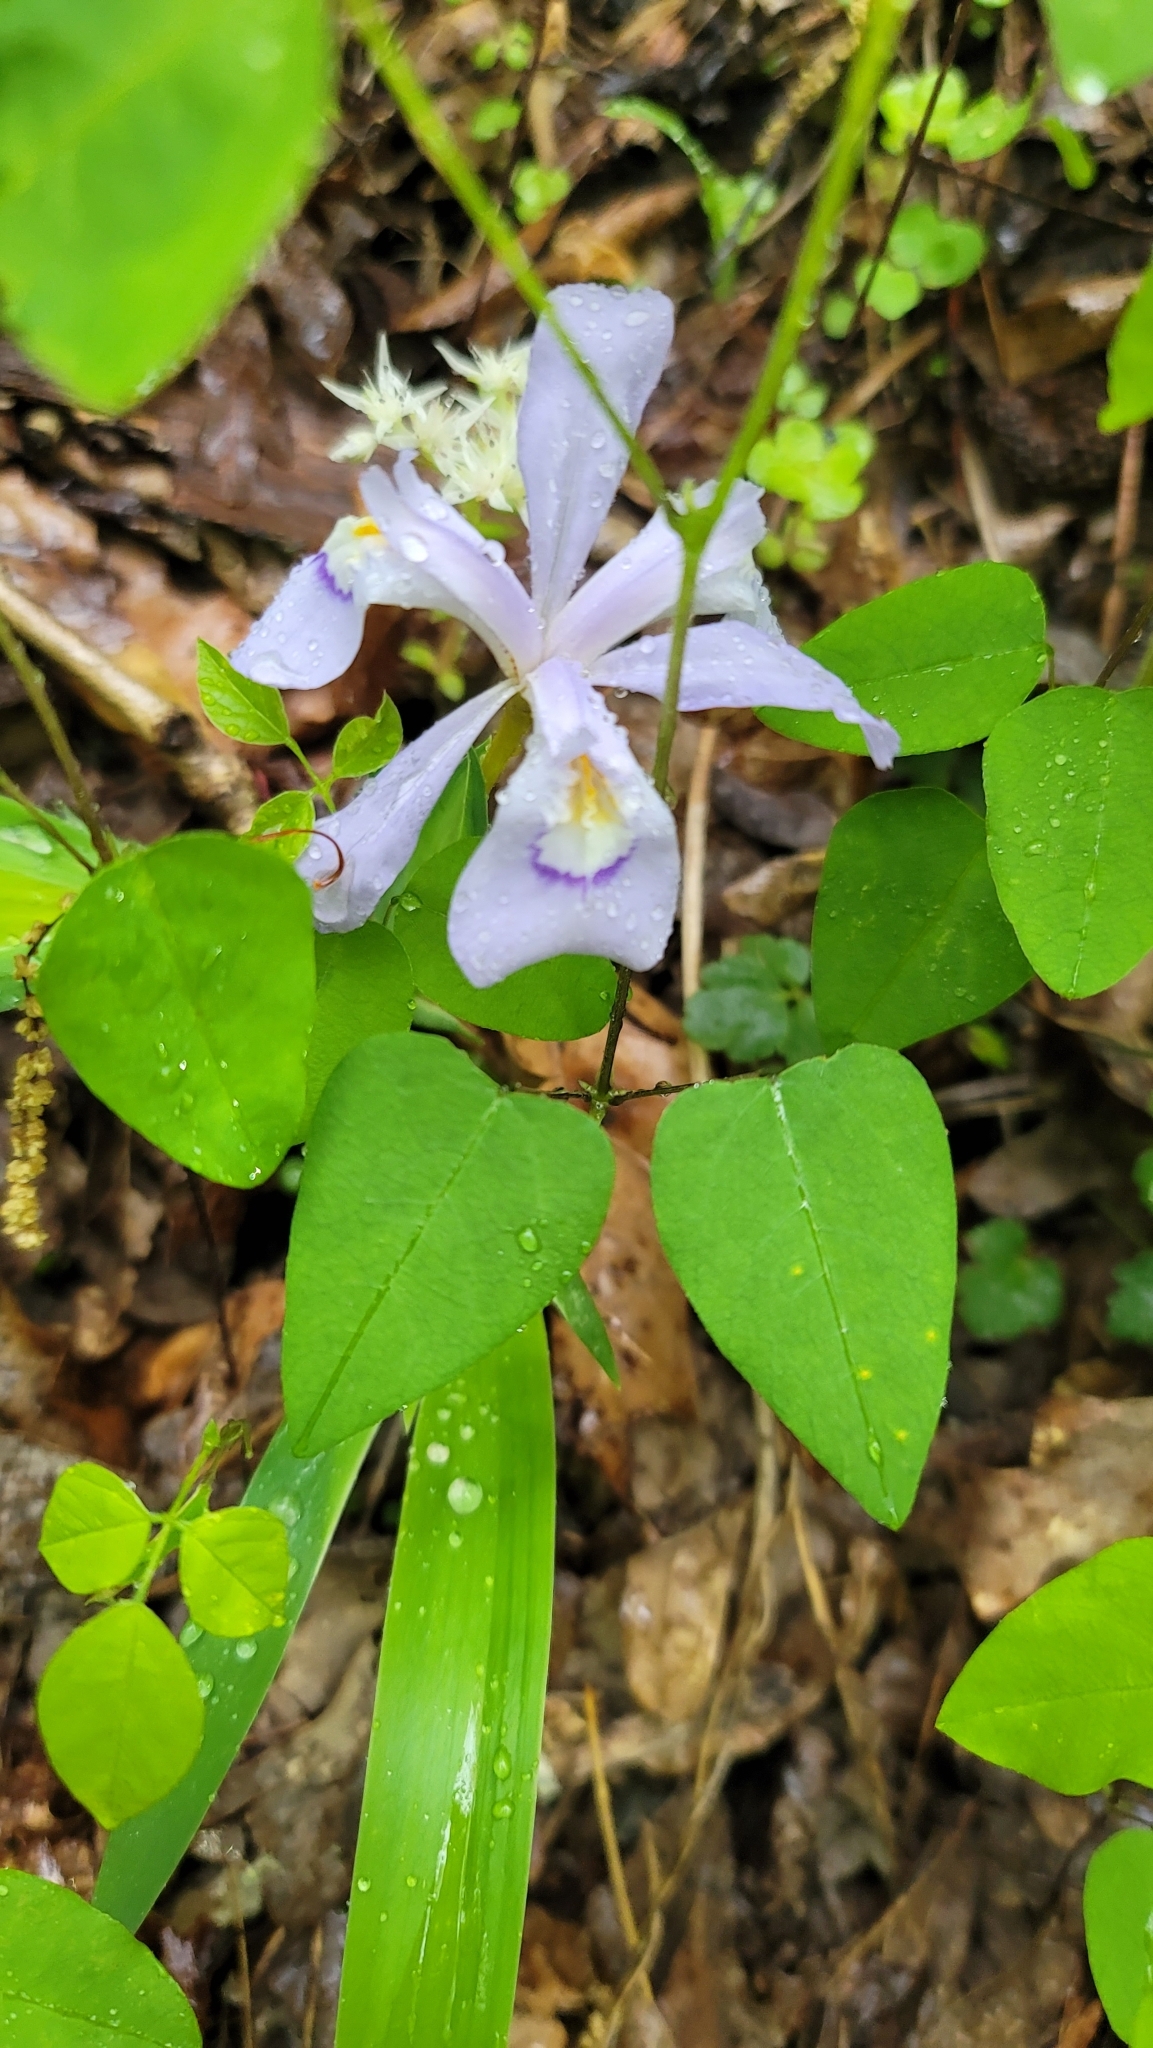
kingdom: Plantae
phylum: Tracheophyta
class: Liliopsida
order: Asparagales
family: Iridaceae
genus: Iris
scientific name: Iris cristata
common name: Crested iris
